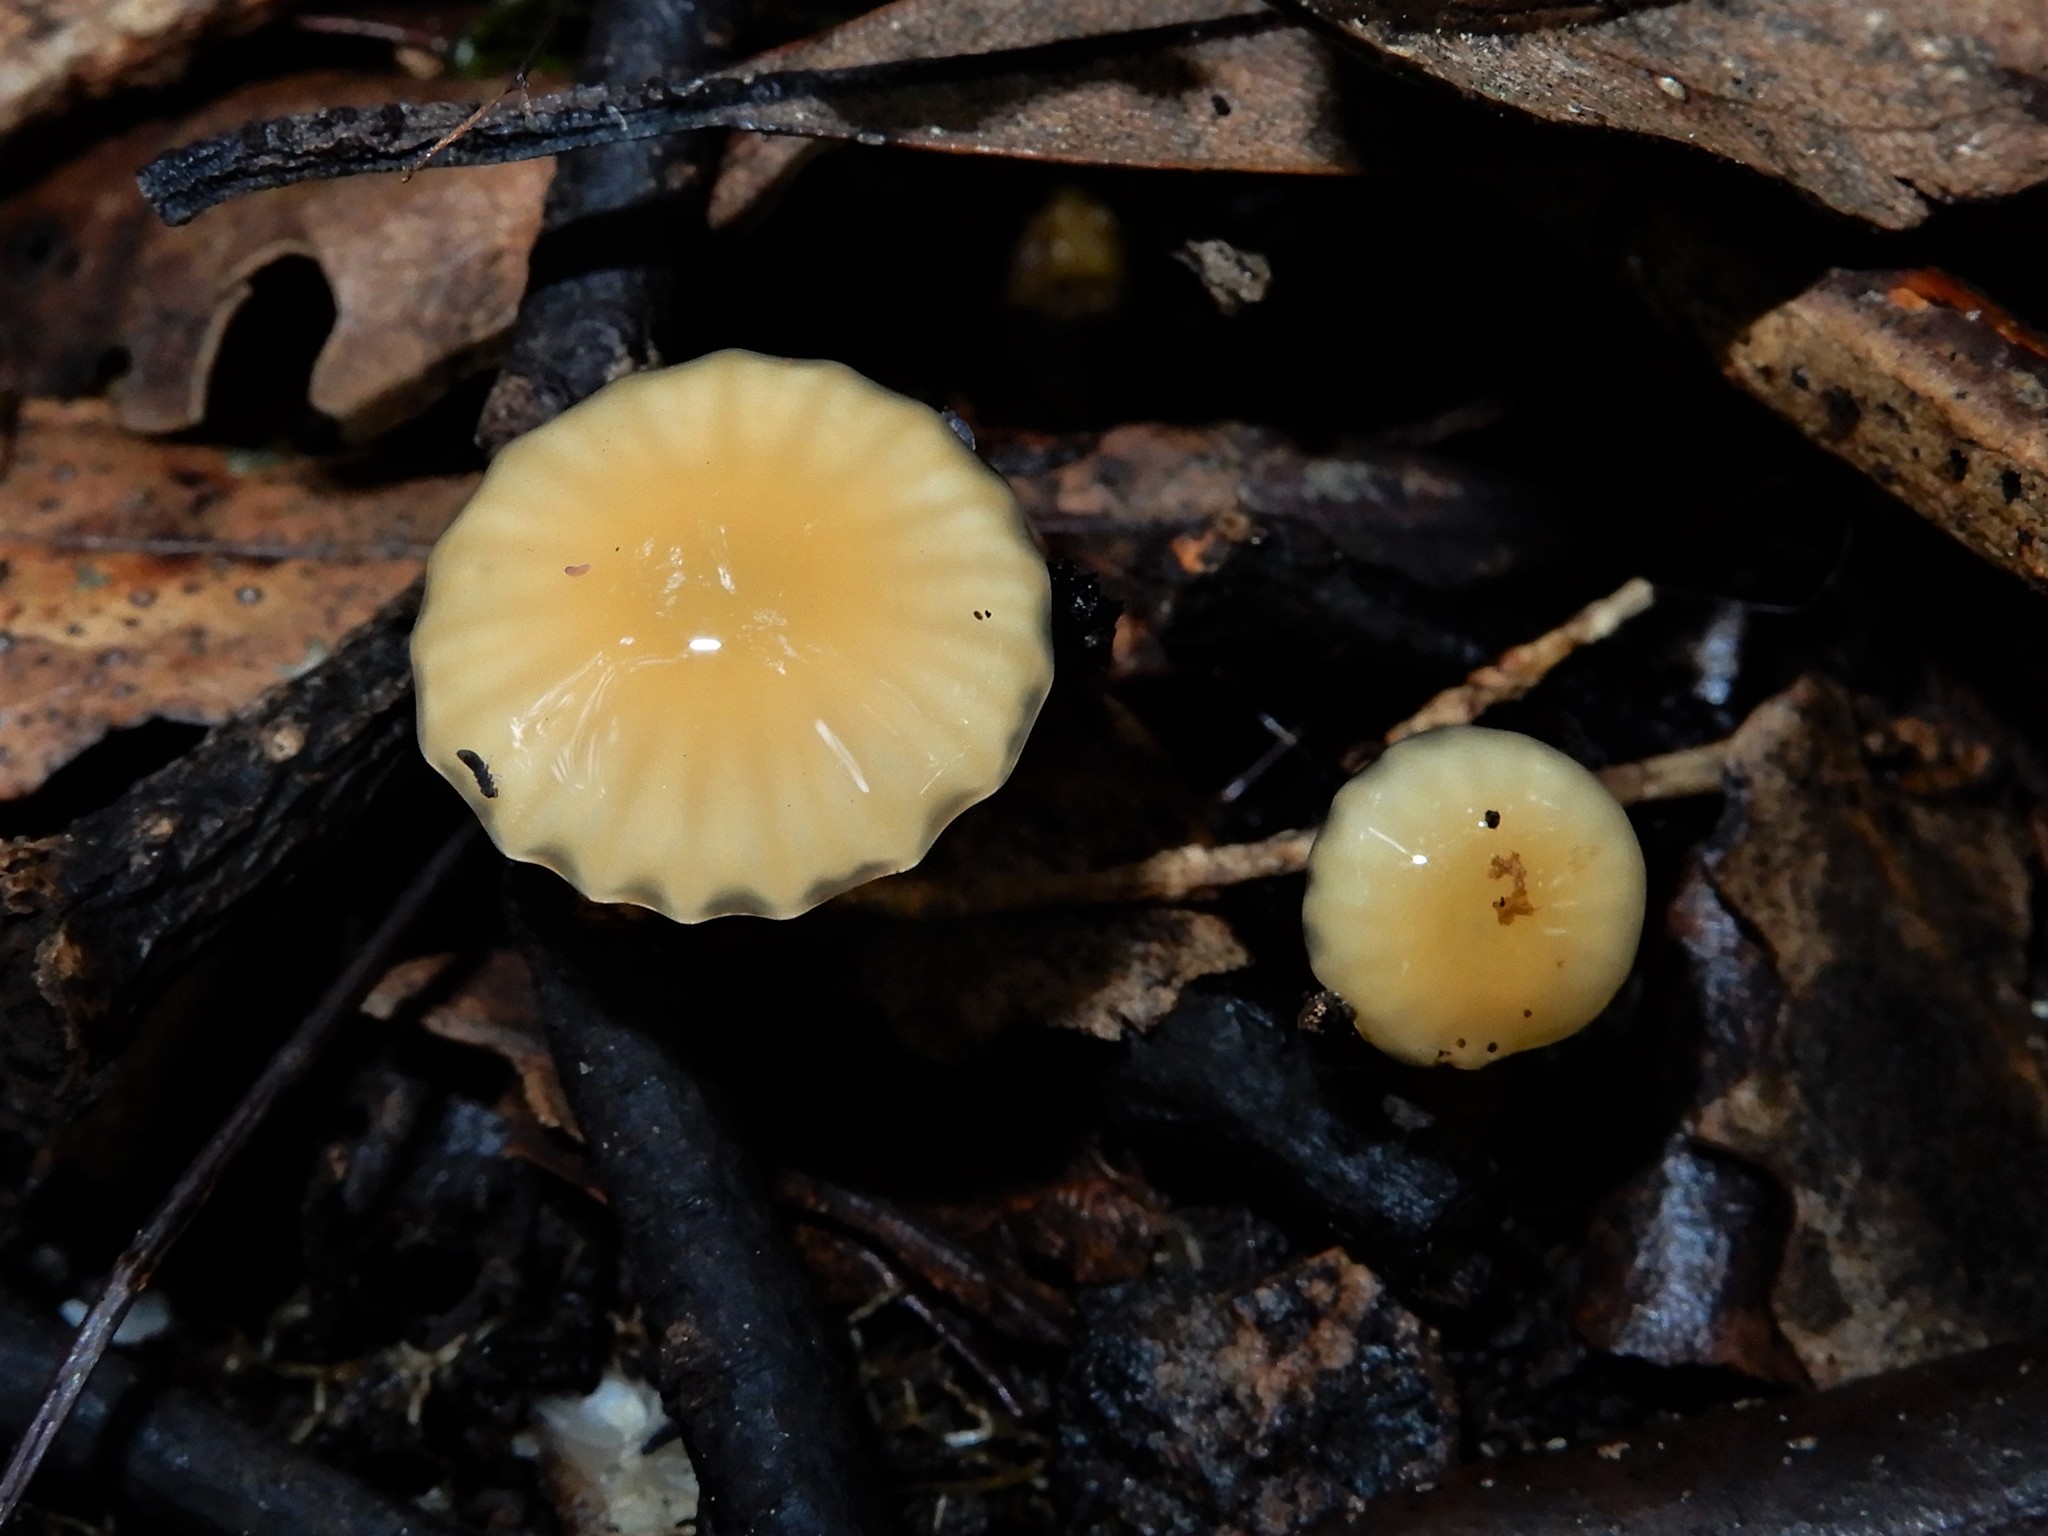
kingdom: Fungi
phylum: Basidiomycota
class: Agaricomycetes
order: Agaricales
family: Hygrophoraceae
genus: Gliophorus
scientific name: Gliophorus
